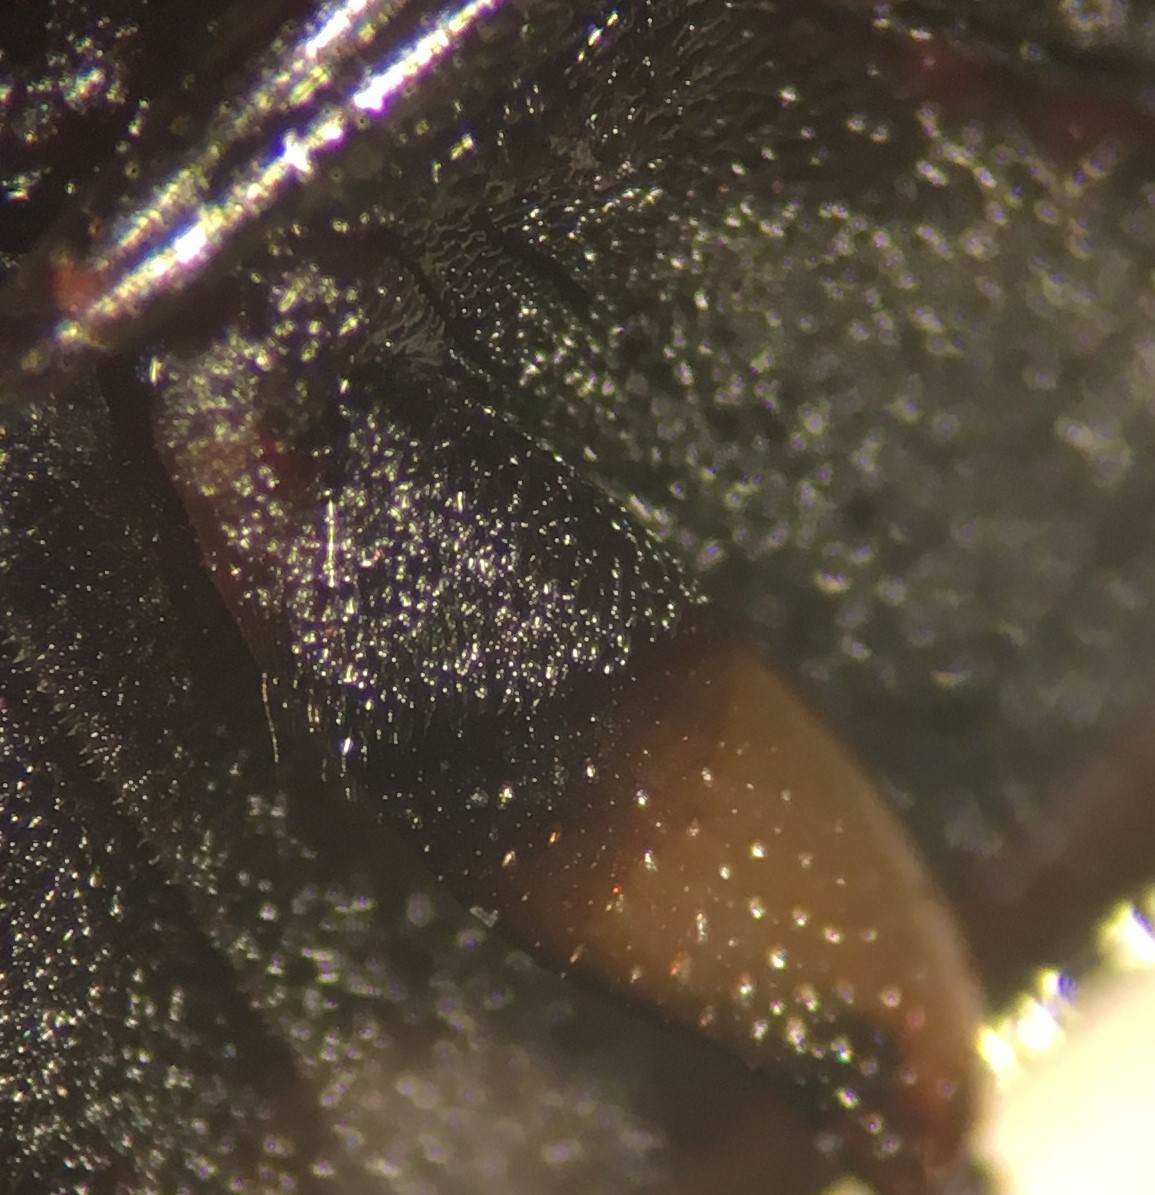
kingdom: Animalia
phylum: Arthropoda
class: Insecta
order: Coleoptera
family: Hydrophilidae
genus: Tropisternus
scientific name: Tropisternus blatchleyi
